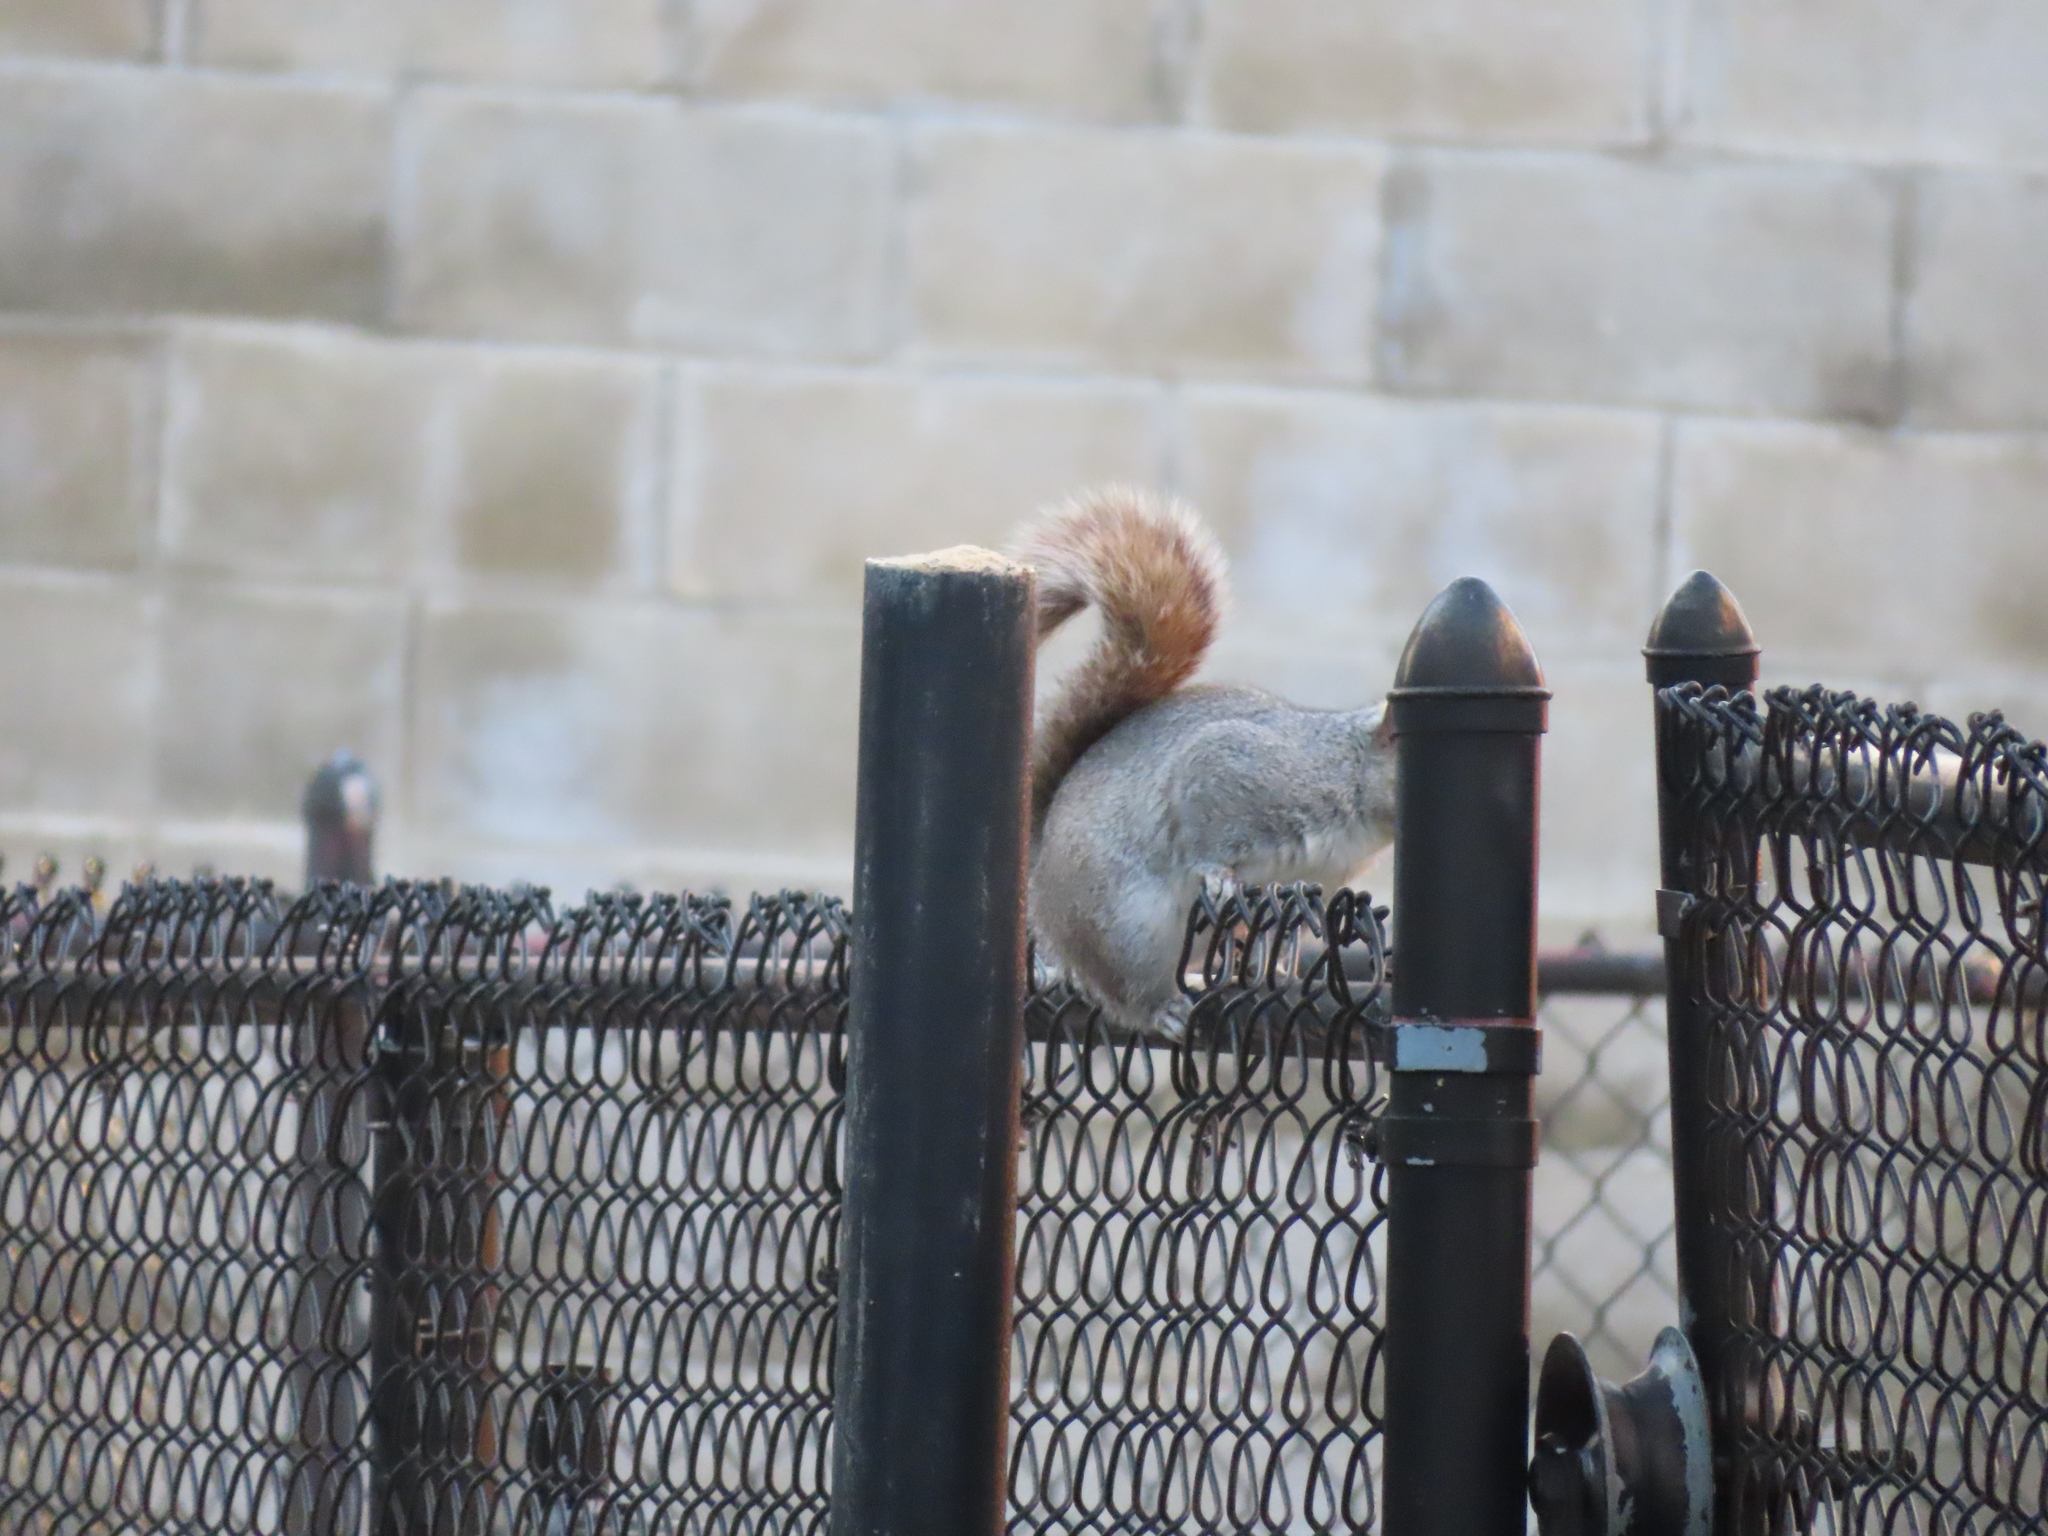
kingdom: Animalia
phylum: Chordata
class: Mammalia
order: Rodentia
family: Sciuridae
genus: Sciurus
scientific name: Sciurus carolinensis
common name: Eastern gray squirrel
